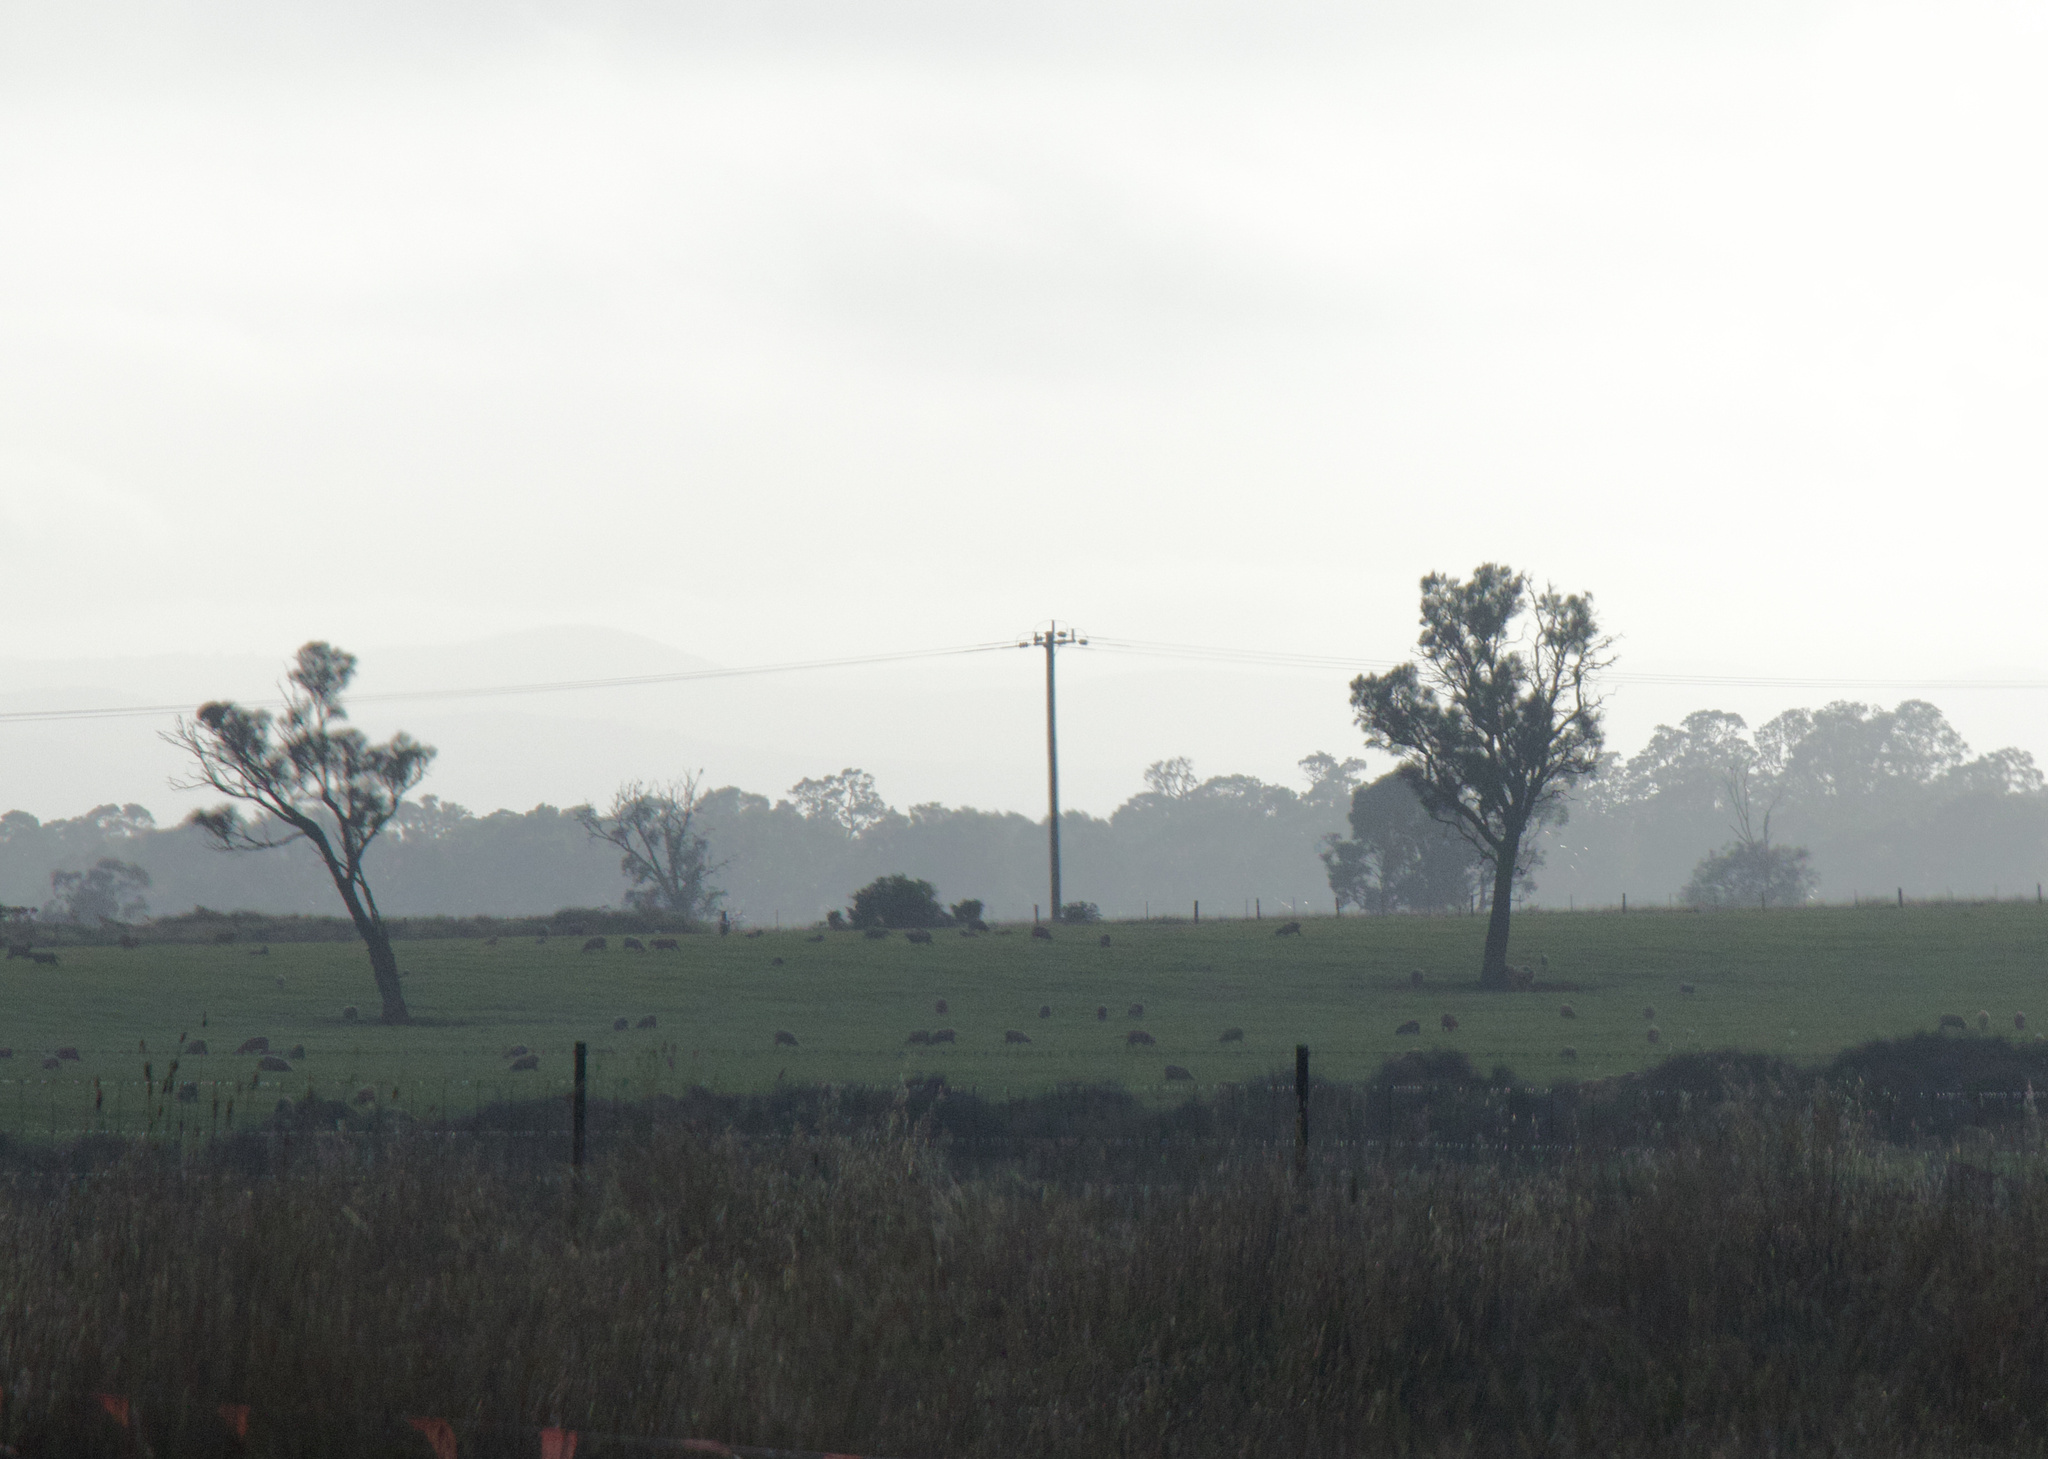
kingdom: Plantae
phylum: Tracheophyta
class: Magnoliopsida
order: Fagales
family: Casuarinaceae
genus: Allocasuarina
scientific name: Allocasuarina luehmannii
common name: Bull-oak
